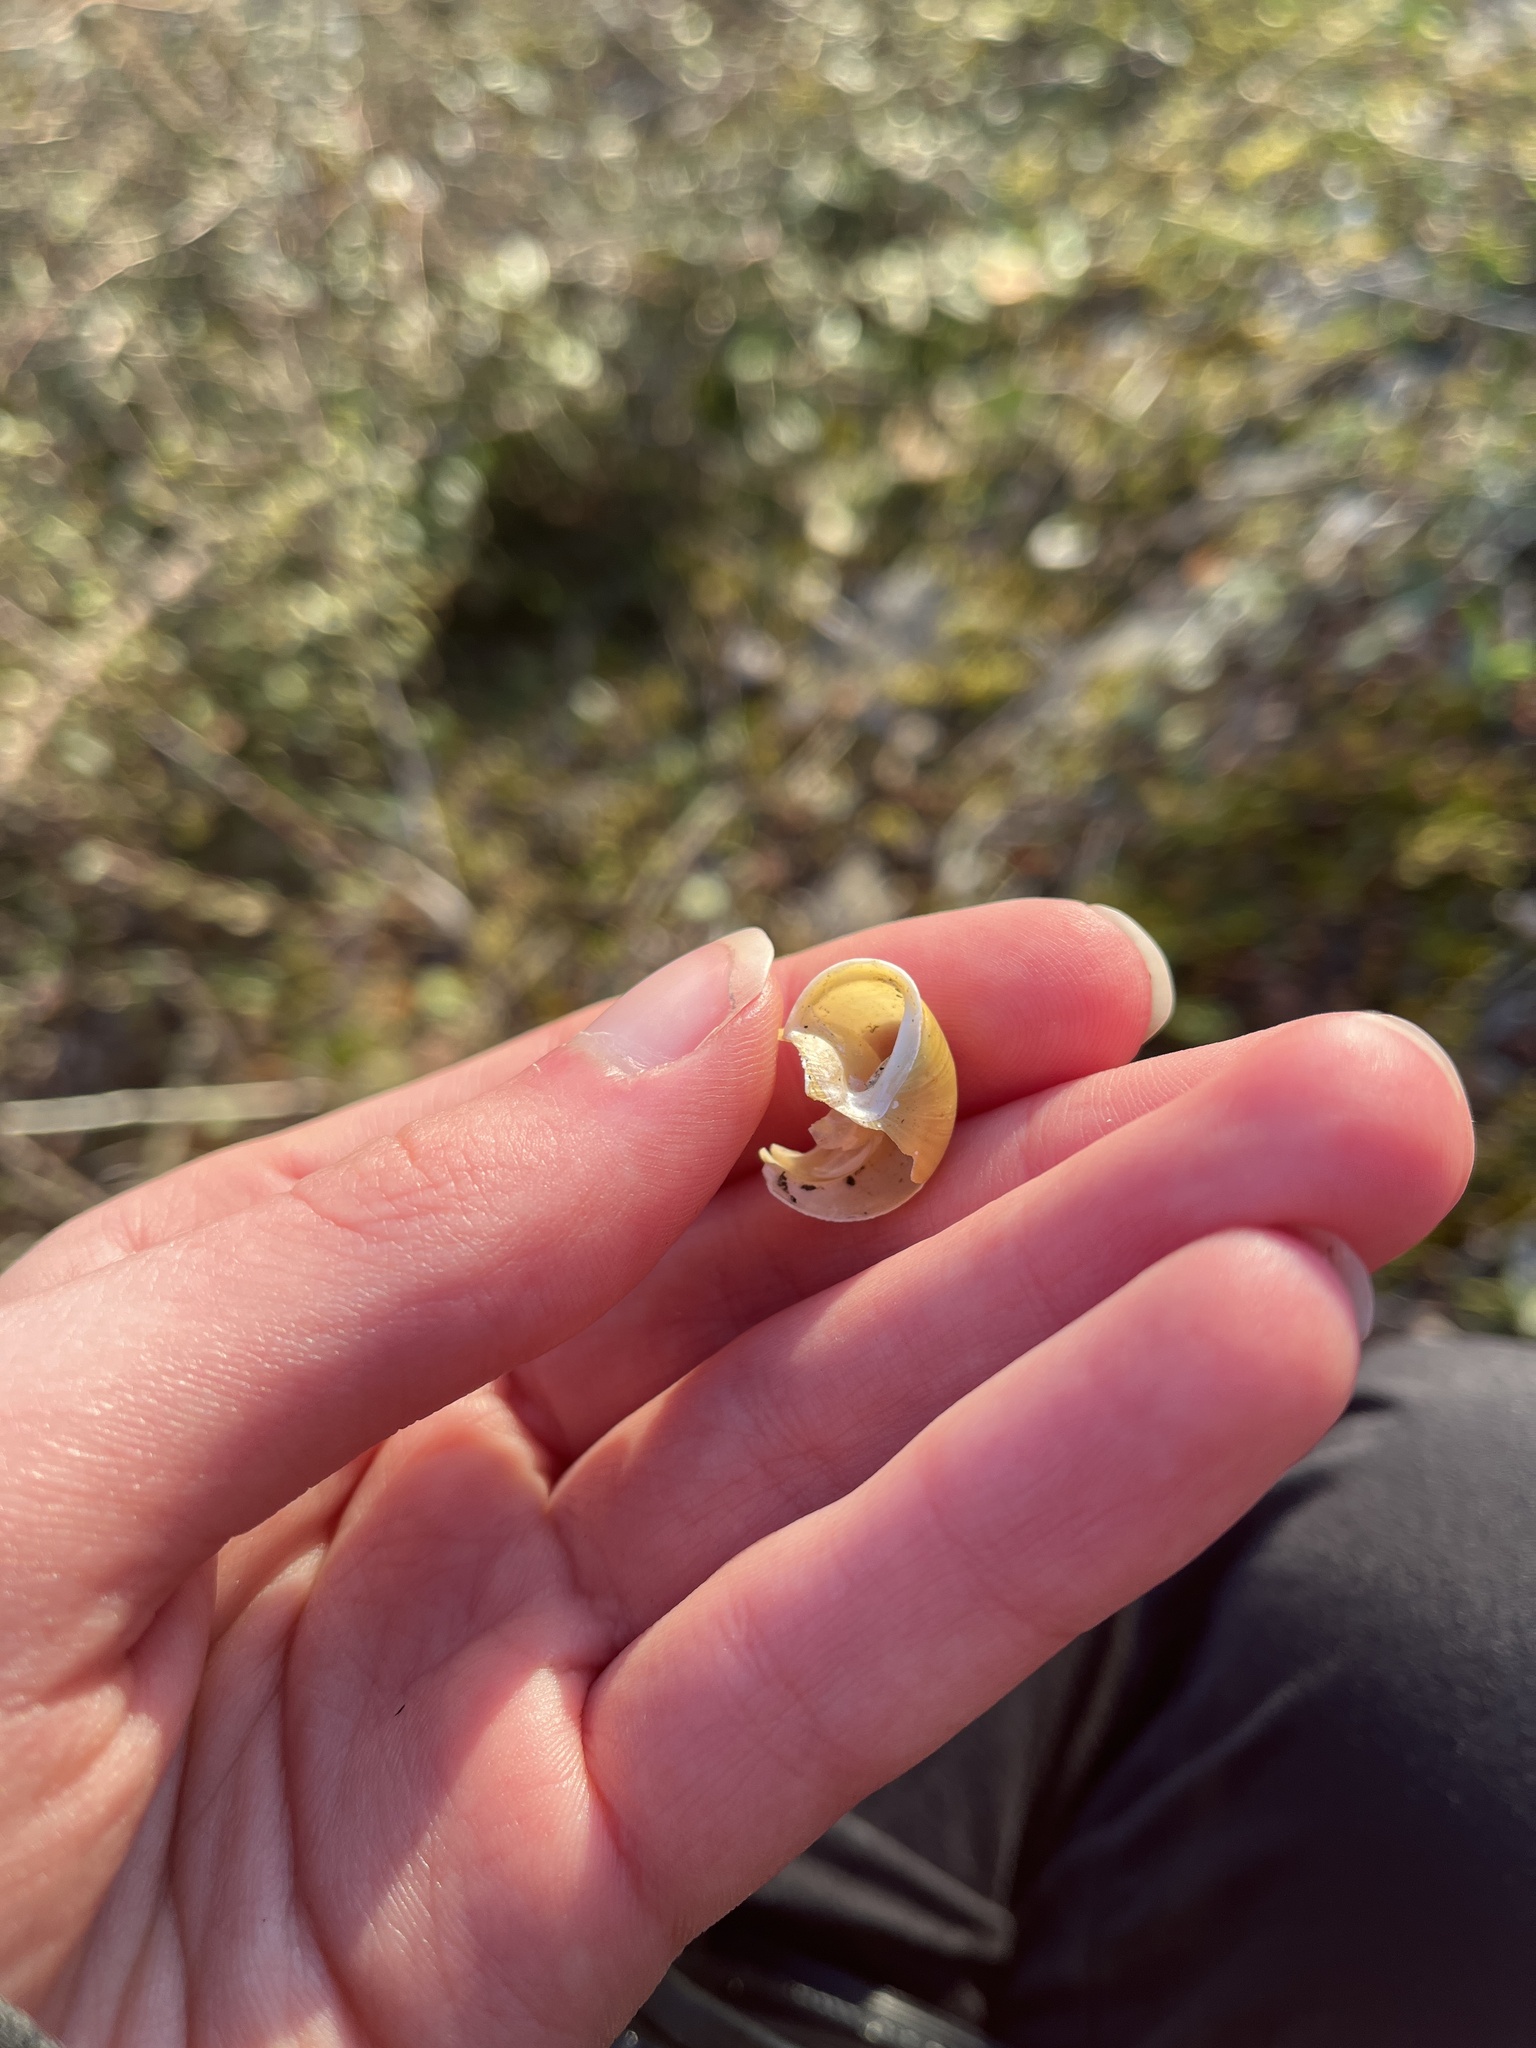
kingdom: Animalia
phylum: Mollusca
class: Gastropoda
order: Stylommatophora
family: Helicidae
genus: Cepaea
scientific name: Cepaea hortensis
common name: White-lip gardensnail
